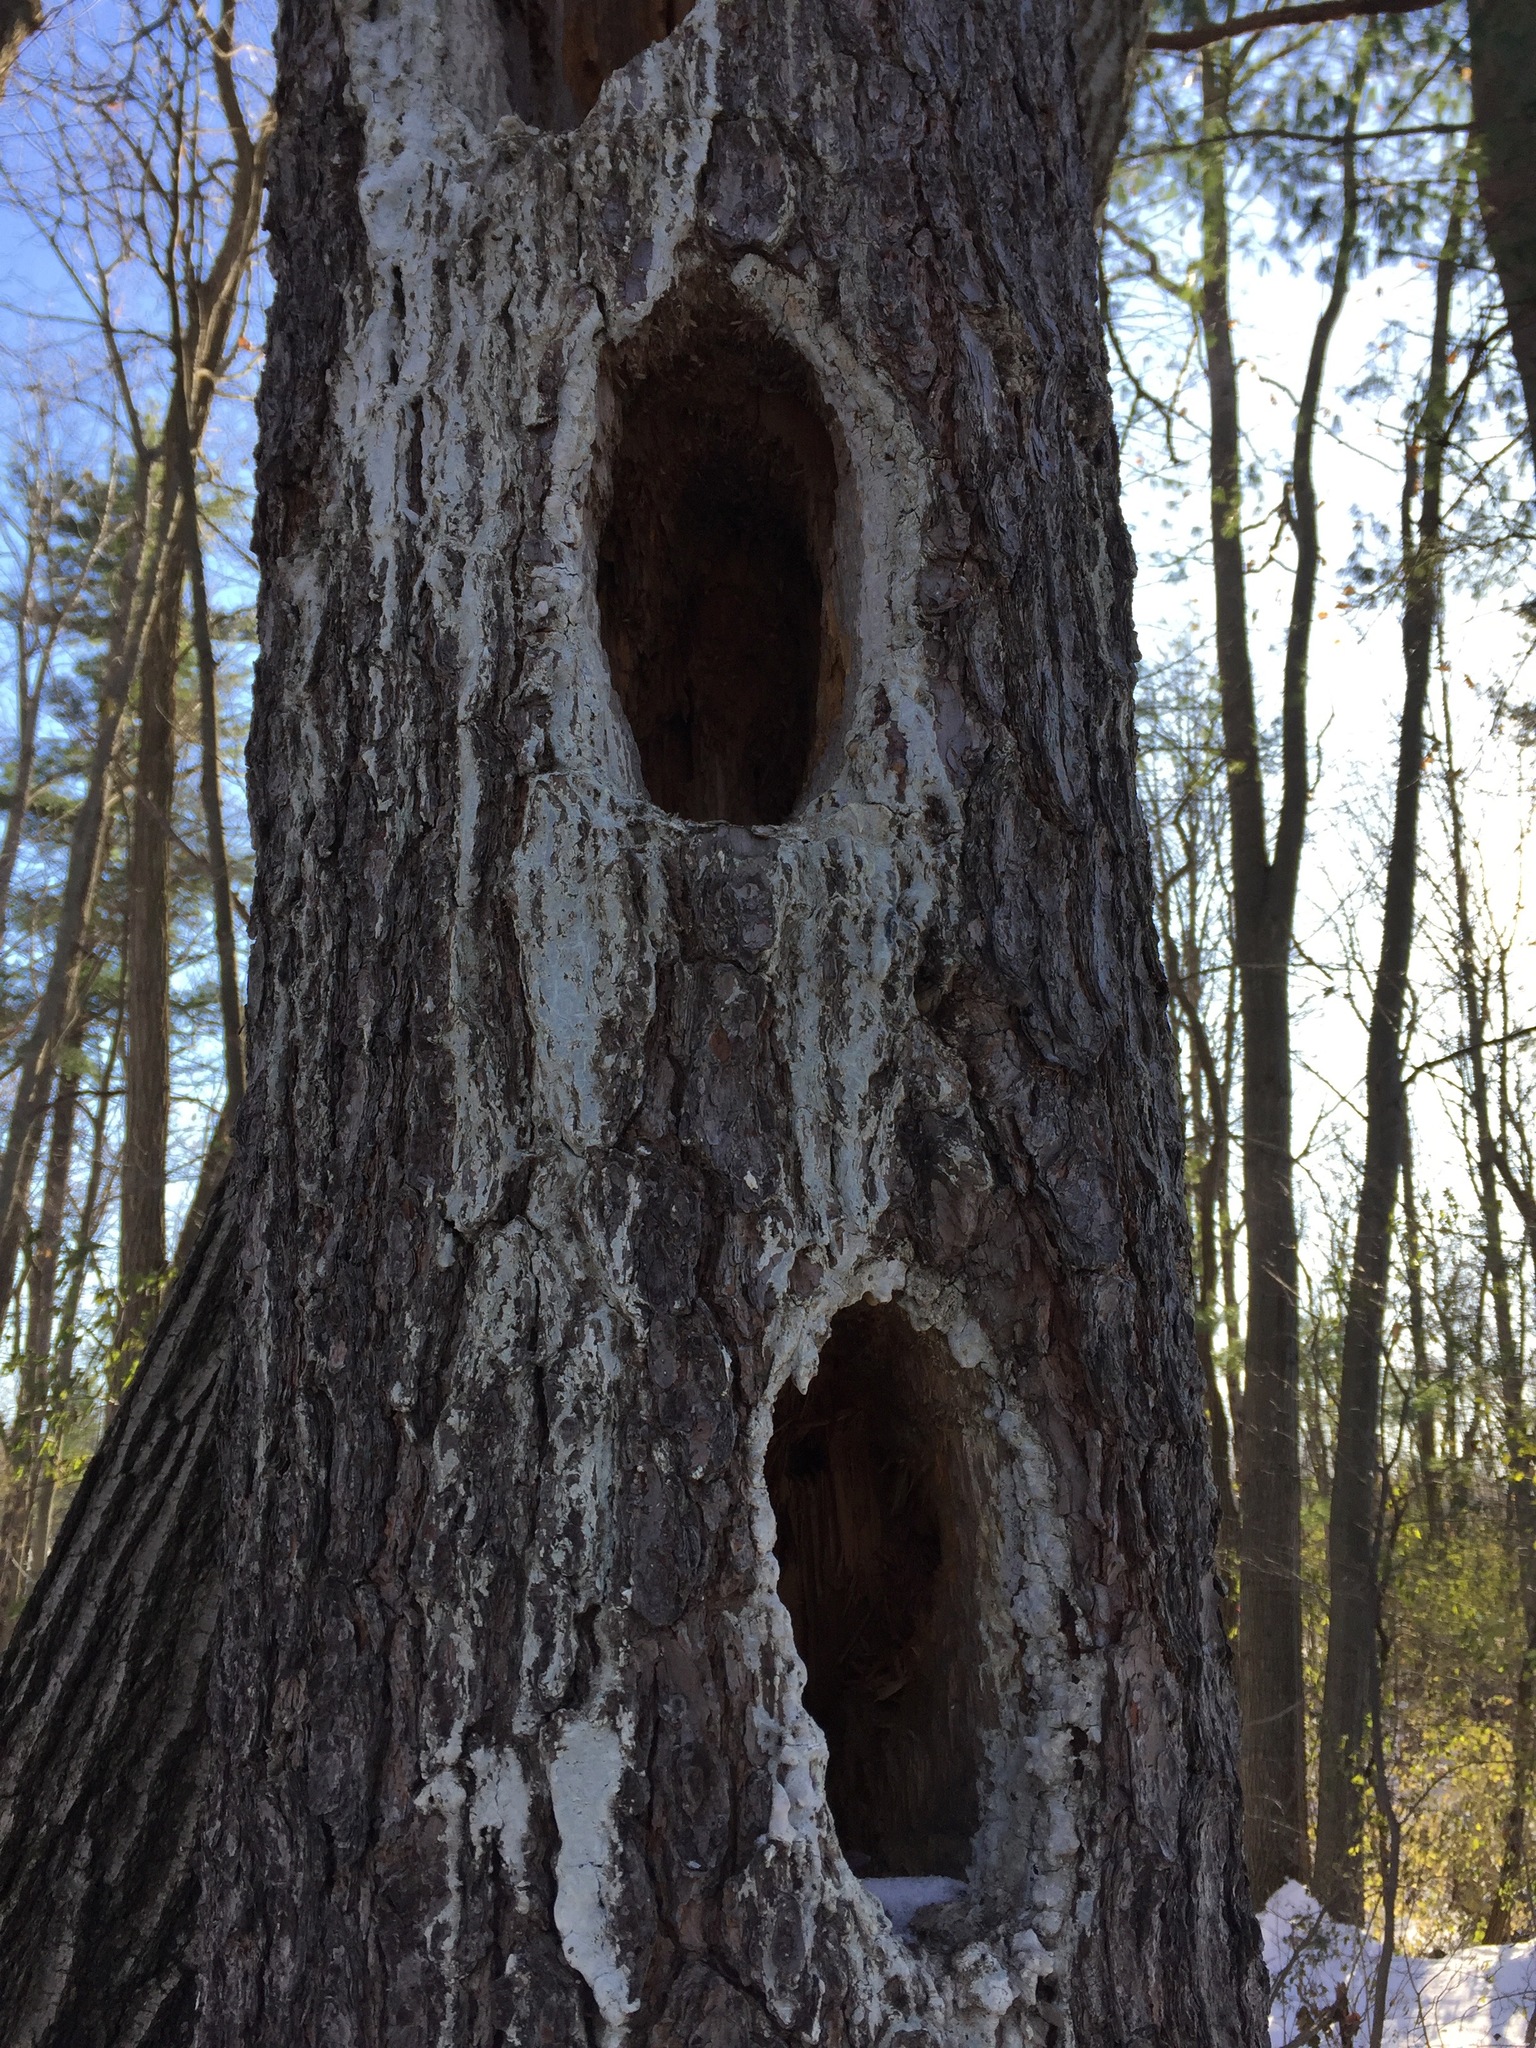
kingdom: Animalia
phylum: Chordata
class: Aves
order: Piciformes
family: Picidae
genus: Dryocopus
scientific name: Dryocopus pileatus
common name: Pileated woodpecker
